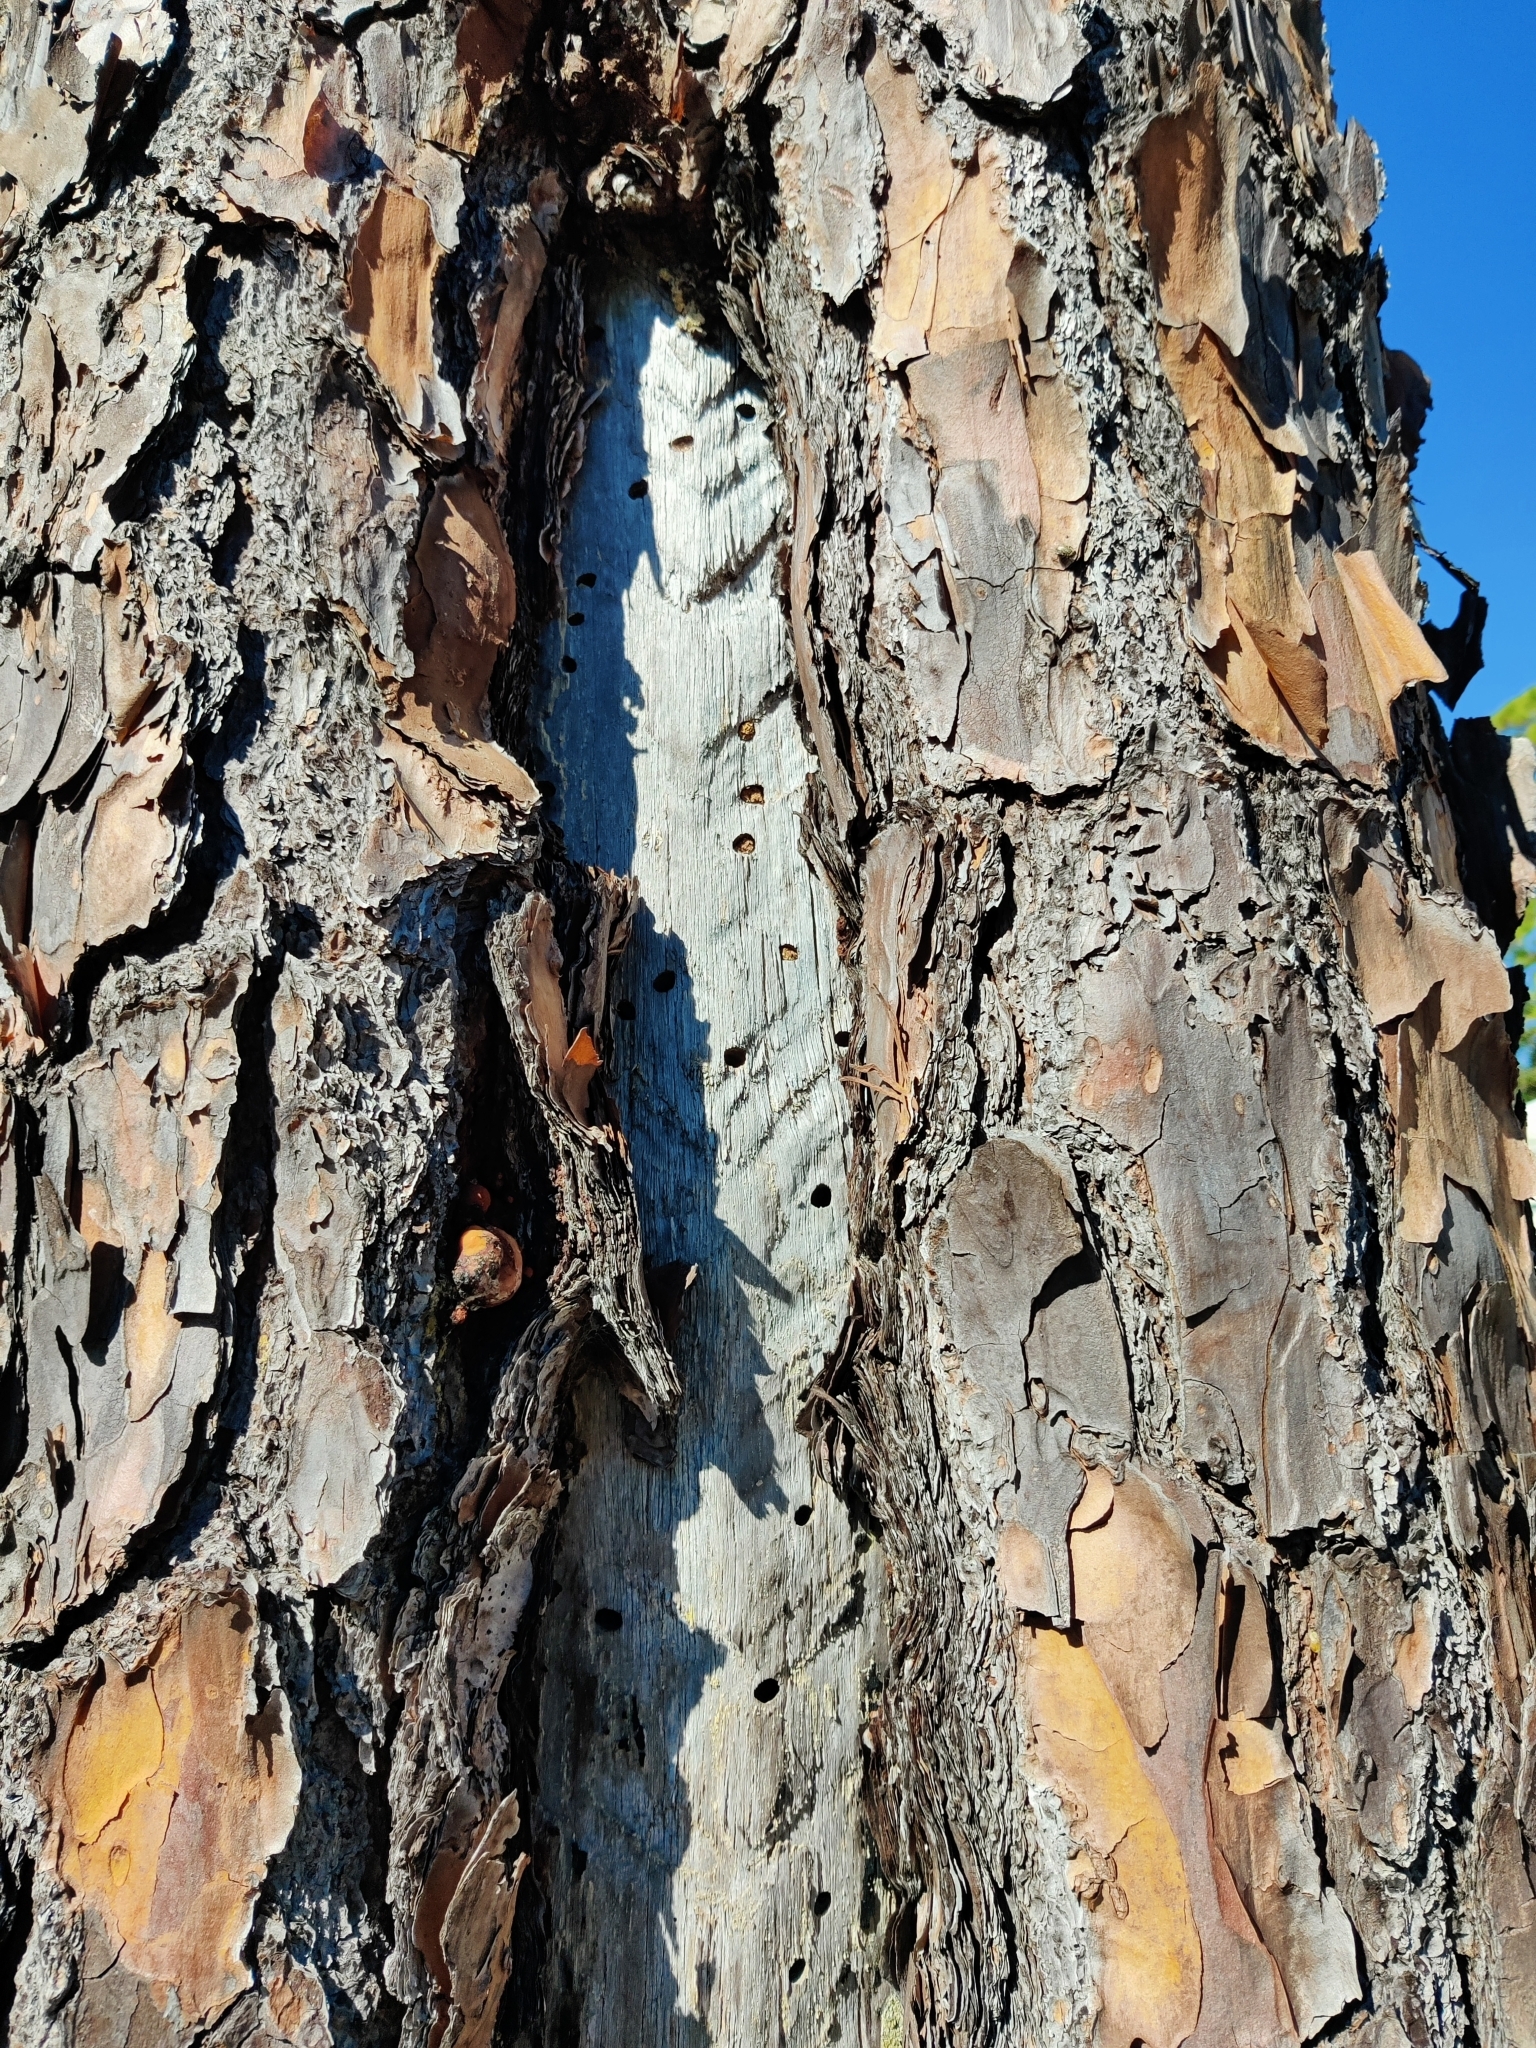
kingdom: Plantae
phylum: Tracheophyta
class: Pinopsida
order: Pinales
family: Pinaceae
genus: Pinus
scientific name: Pinus elliottii
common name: Slash pine
